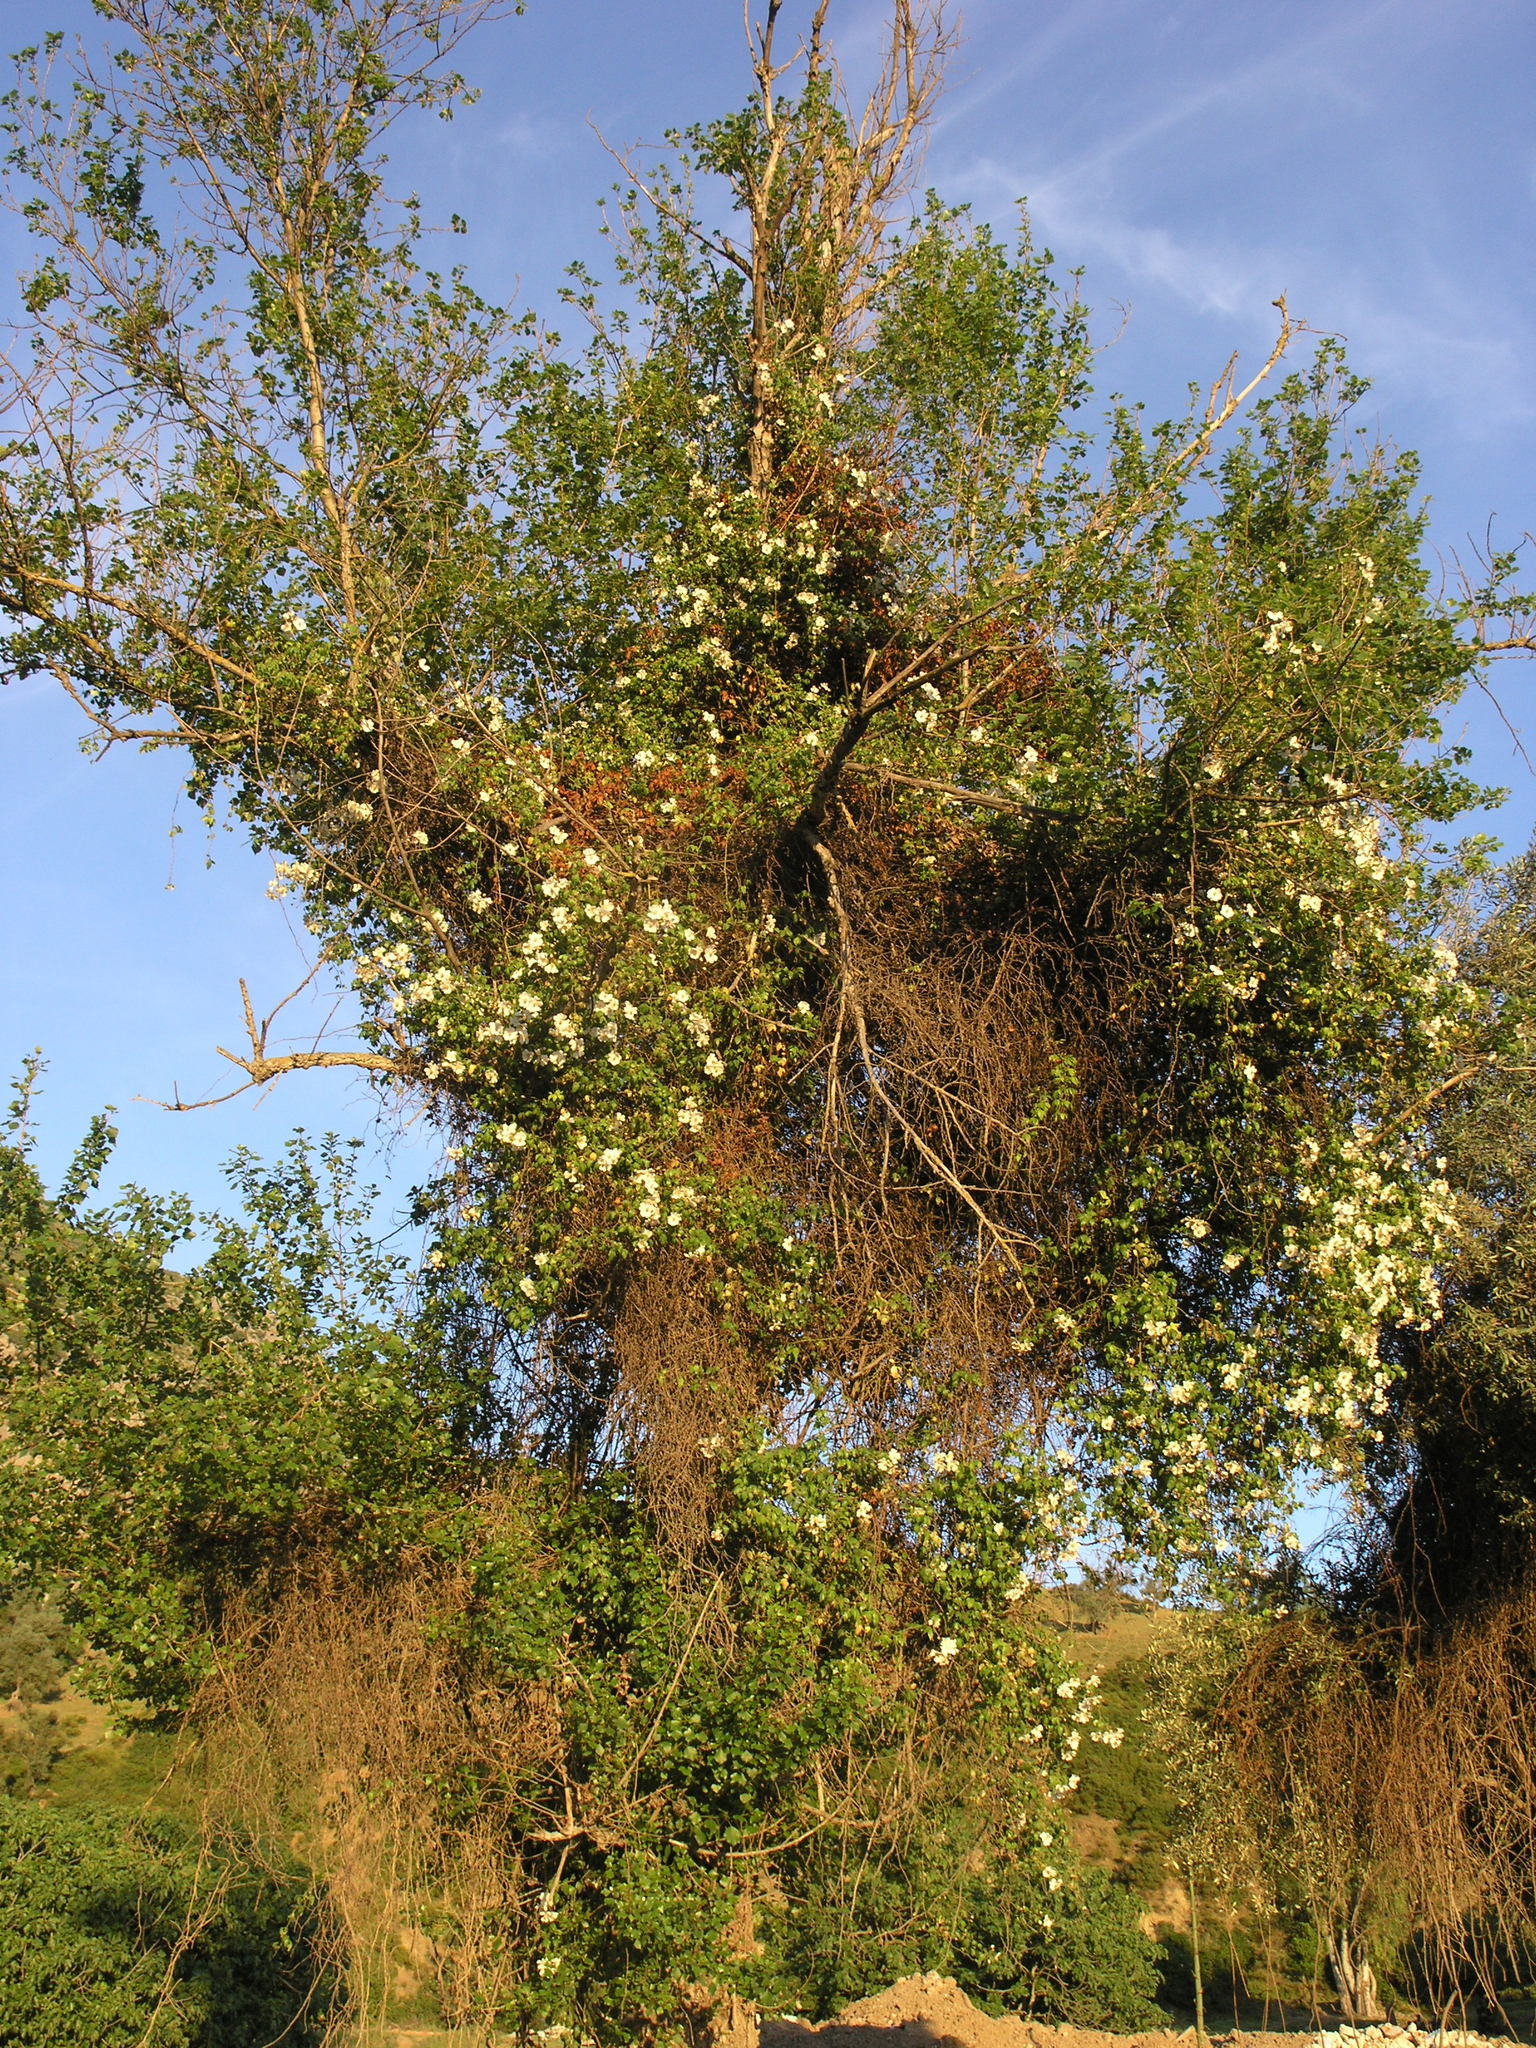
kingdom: Plantae
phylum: Tracheophyta
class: Magnoliopsida
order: Rosales
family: Rosaceae
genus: Rosa
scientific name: Rosa sempervirens
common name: Evergreen rose
